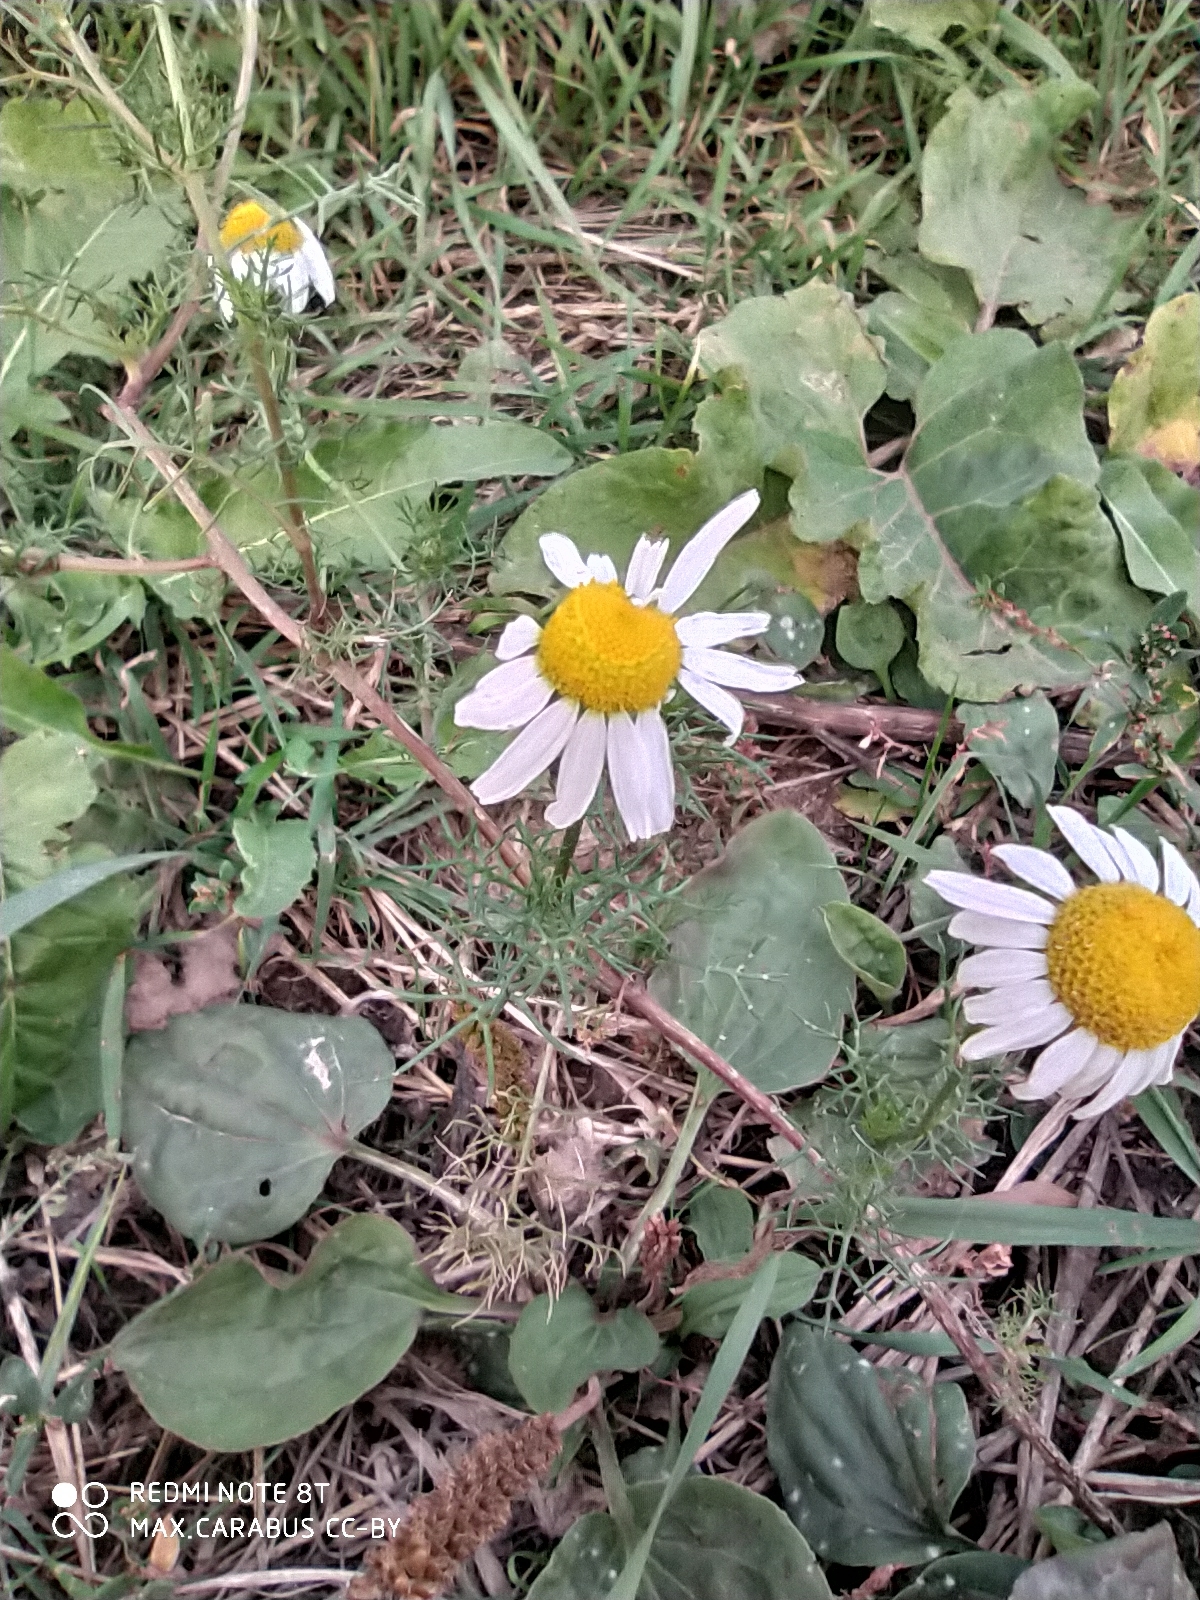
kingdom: Plantae
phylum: Tracheophyta
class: Magnoliopsida
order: Asterales
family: Asteraceae
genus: Tripleurospermum
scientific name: Tripleurospermum inodorum
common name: Scentless mayweed
